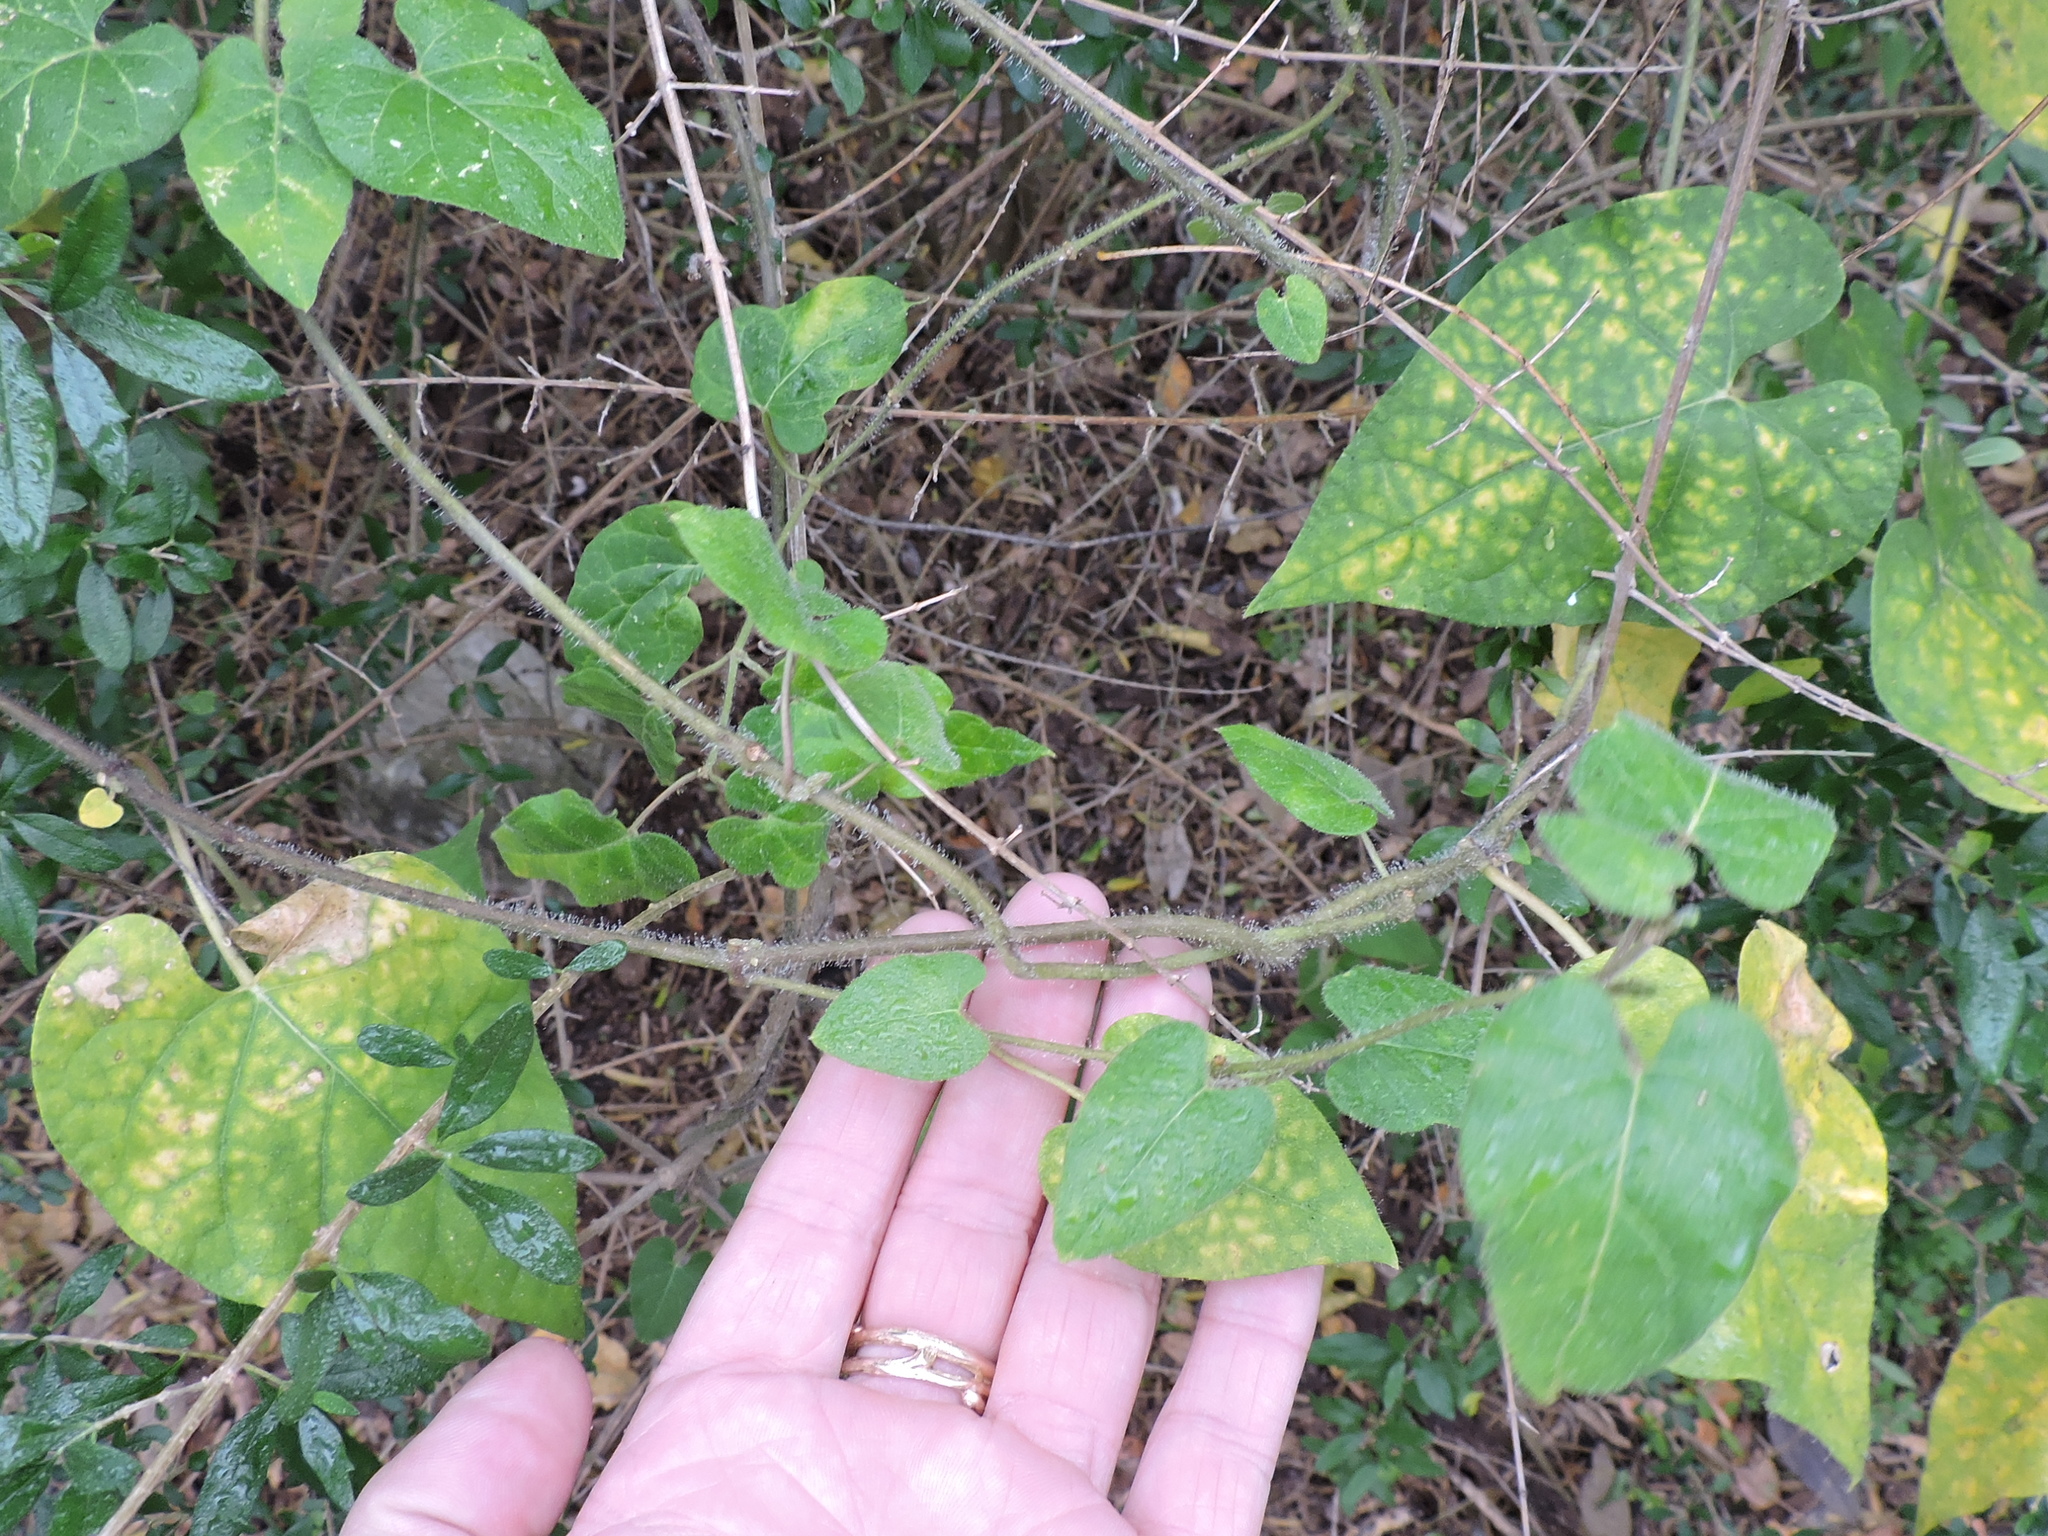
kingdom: Plantae
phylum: Tracheophyta
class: Magnoliopsida
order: Gentianales
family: Apocynaceae
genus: Dictyanthus
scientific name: Dictyanthus reticulatus
